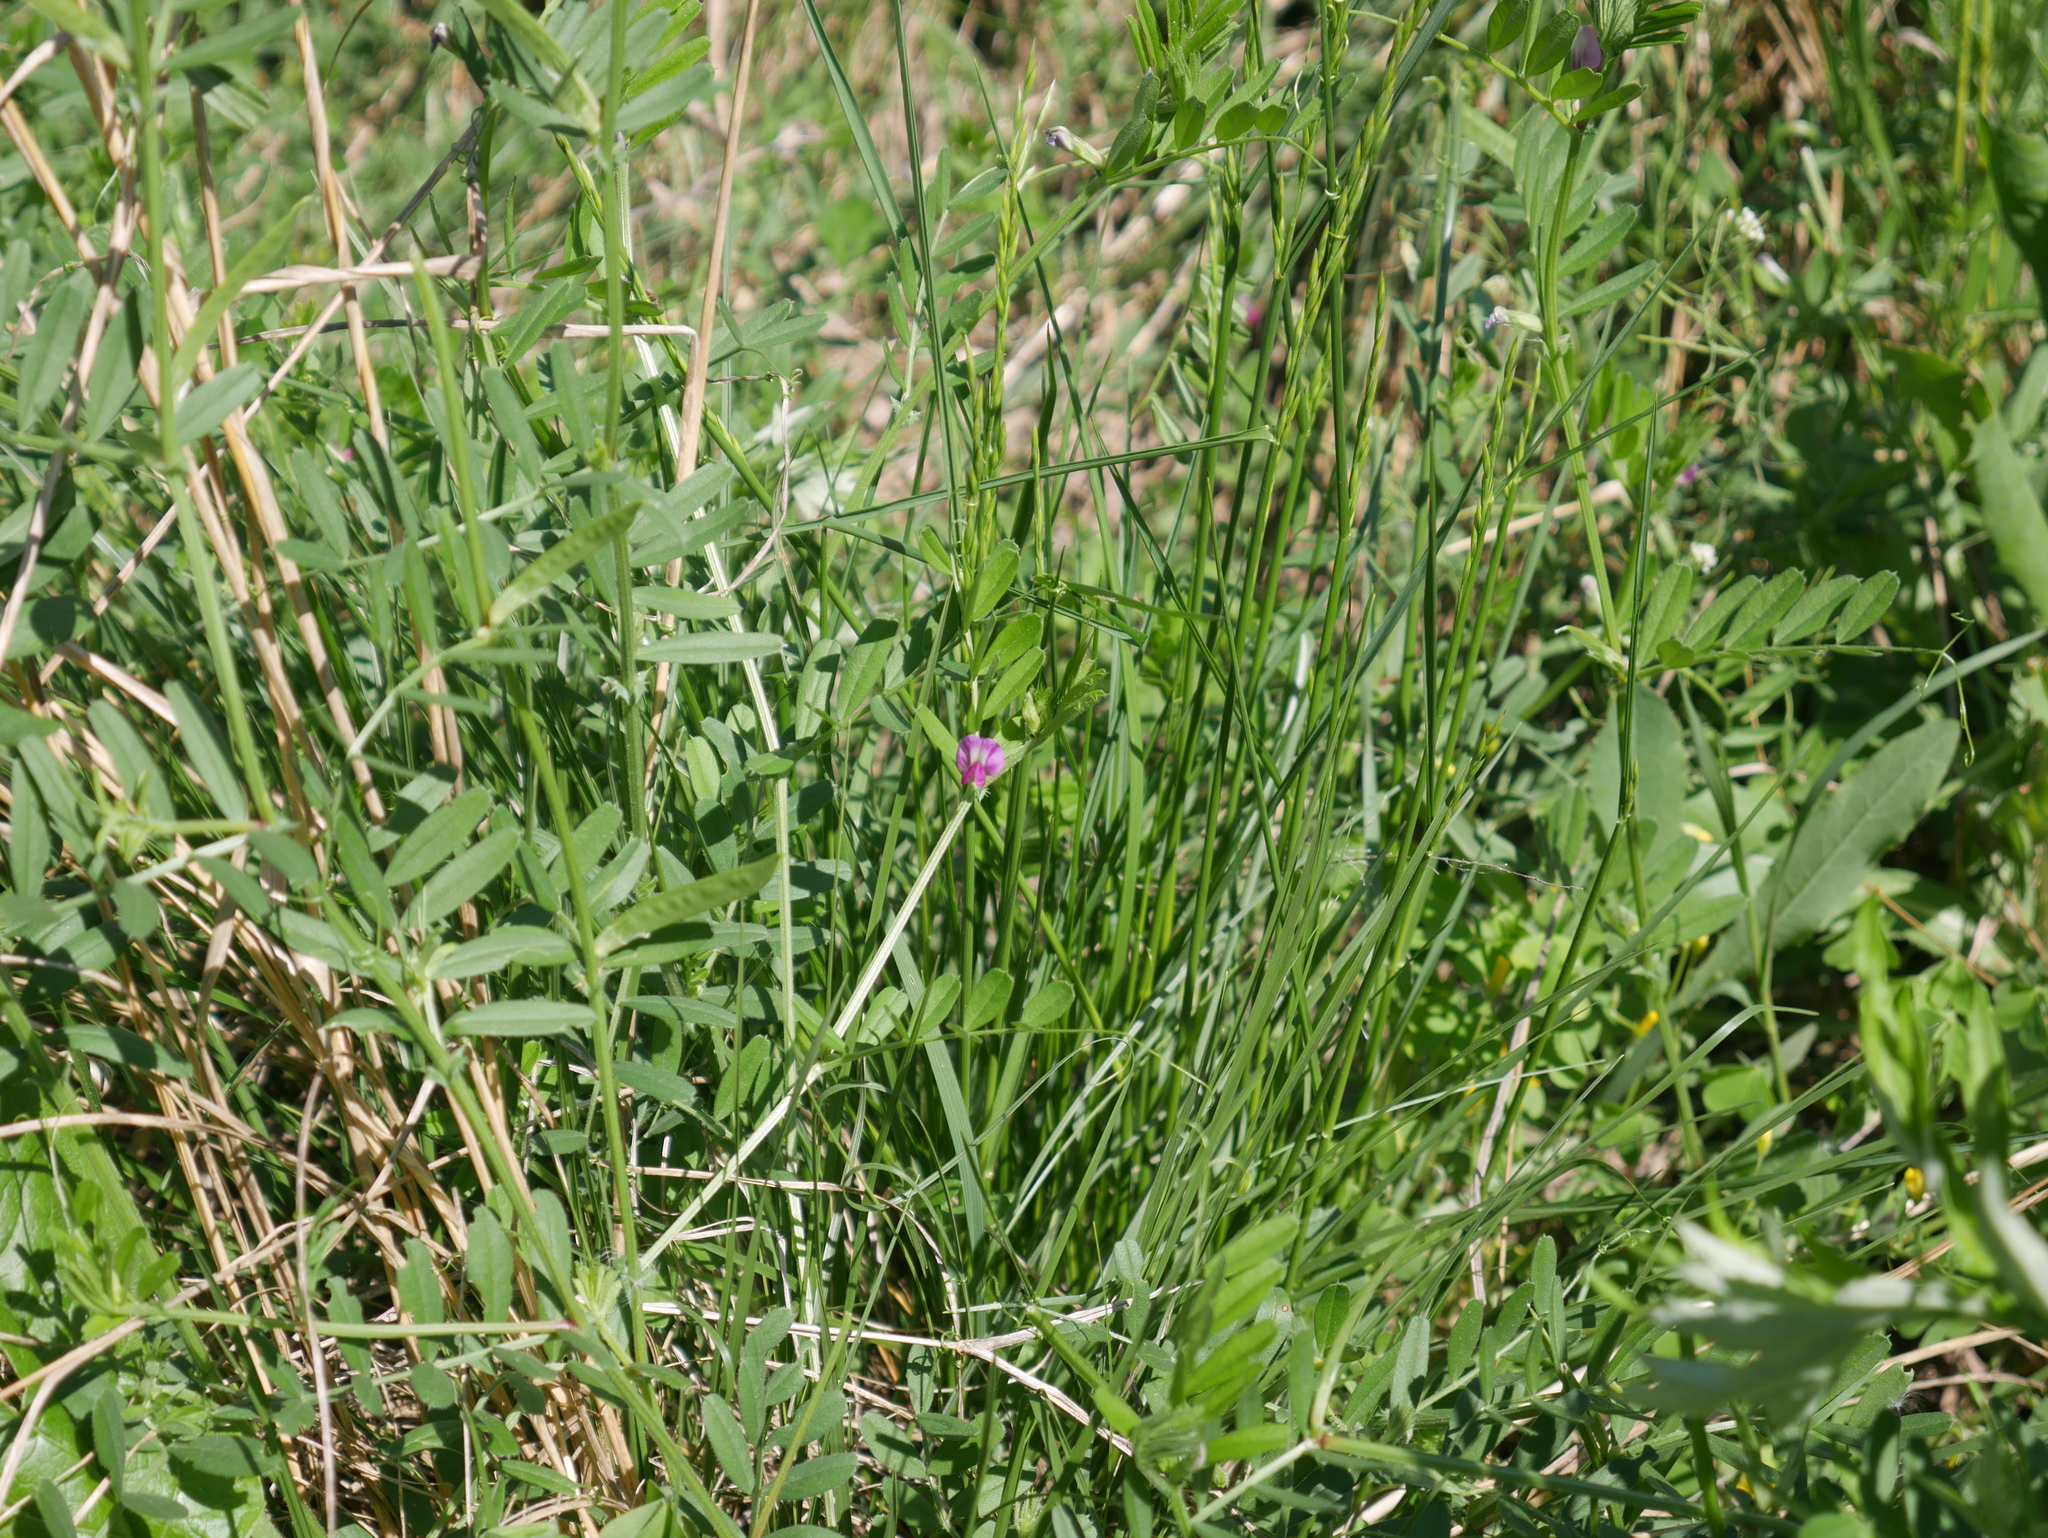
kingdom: Plantae
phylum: Tracheophyta
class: Magnoliopsida
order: Fabales
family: Fabaceae
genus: Vicia
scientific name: Vicia sativa
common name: Garden vetch
